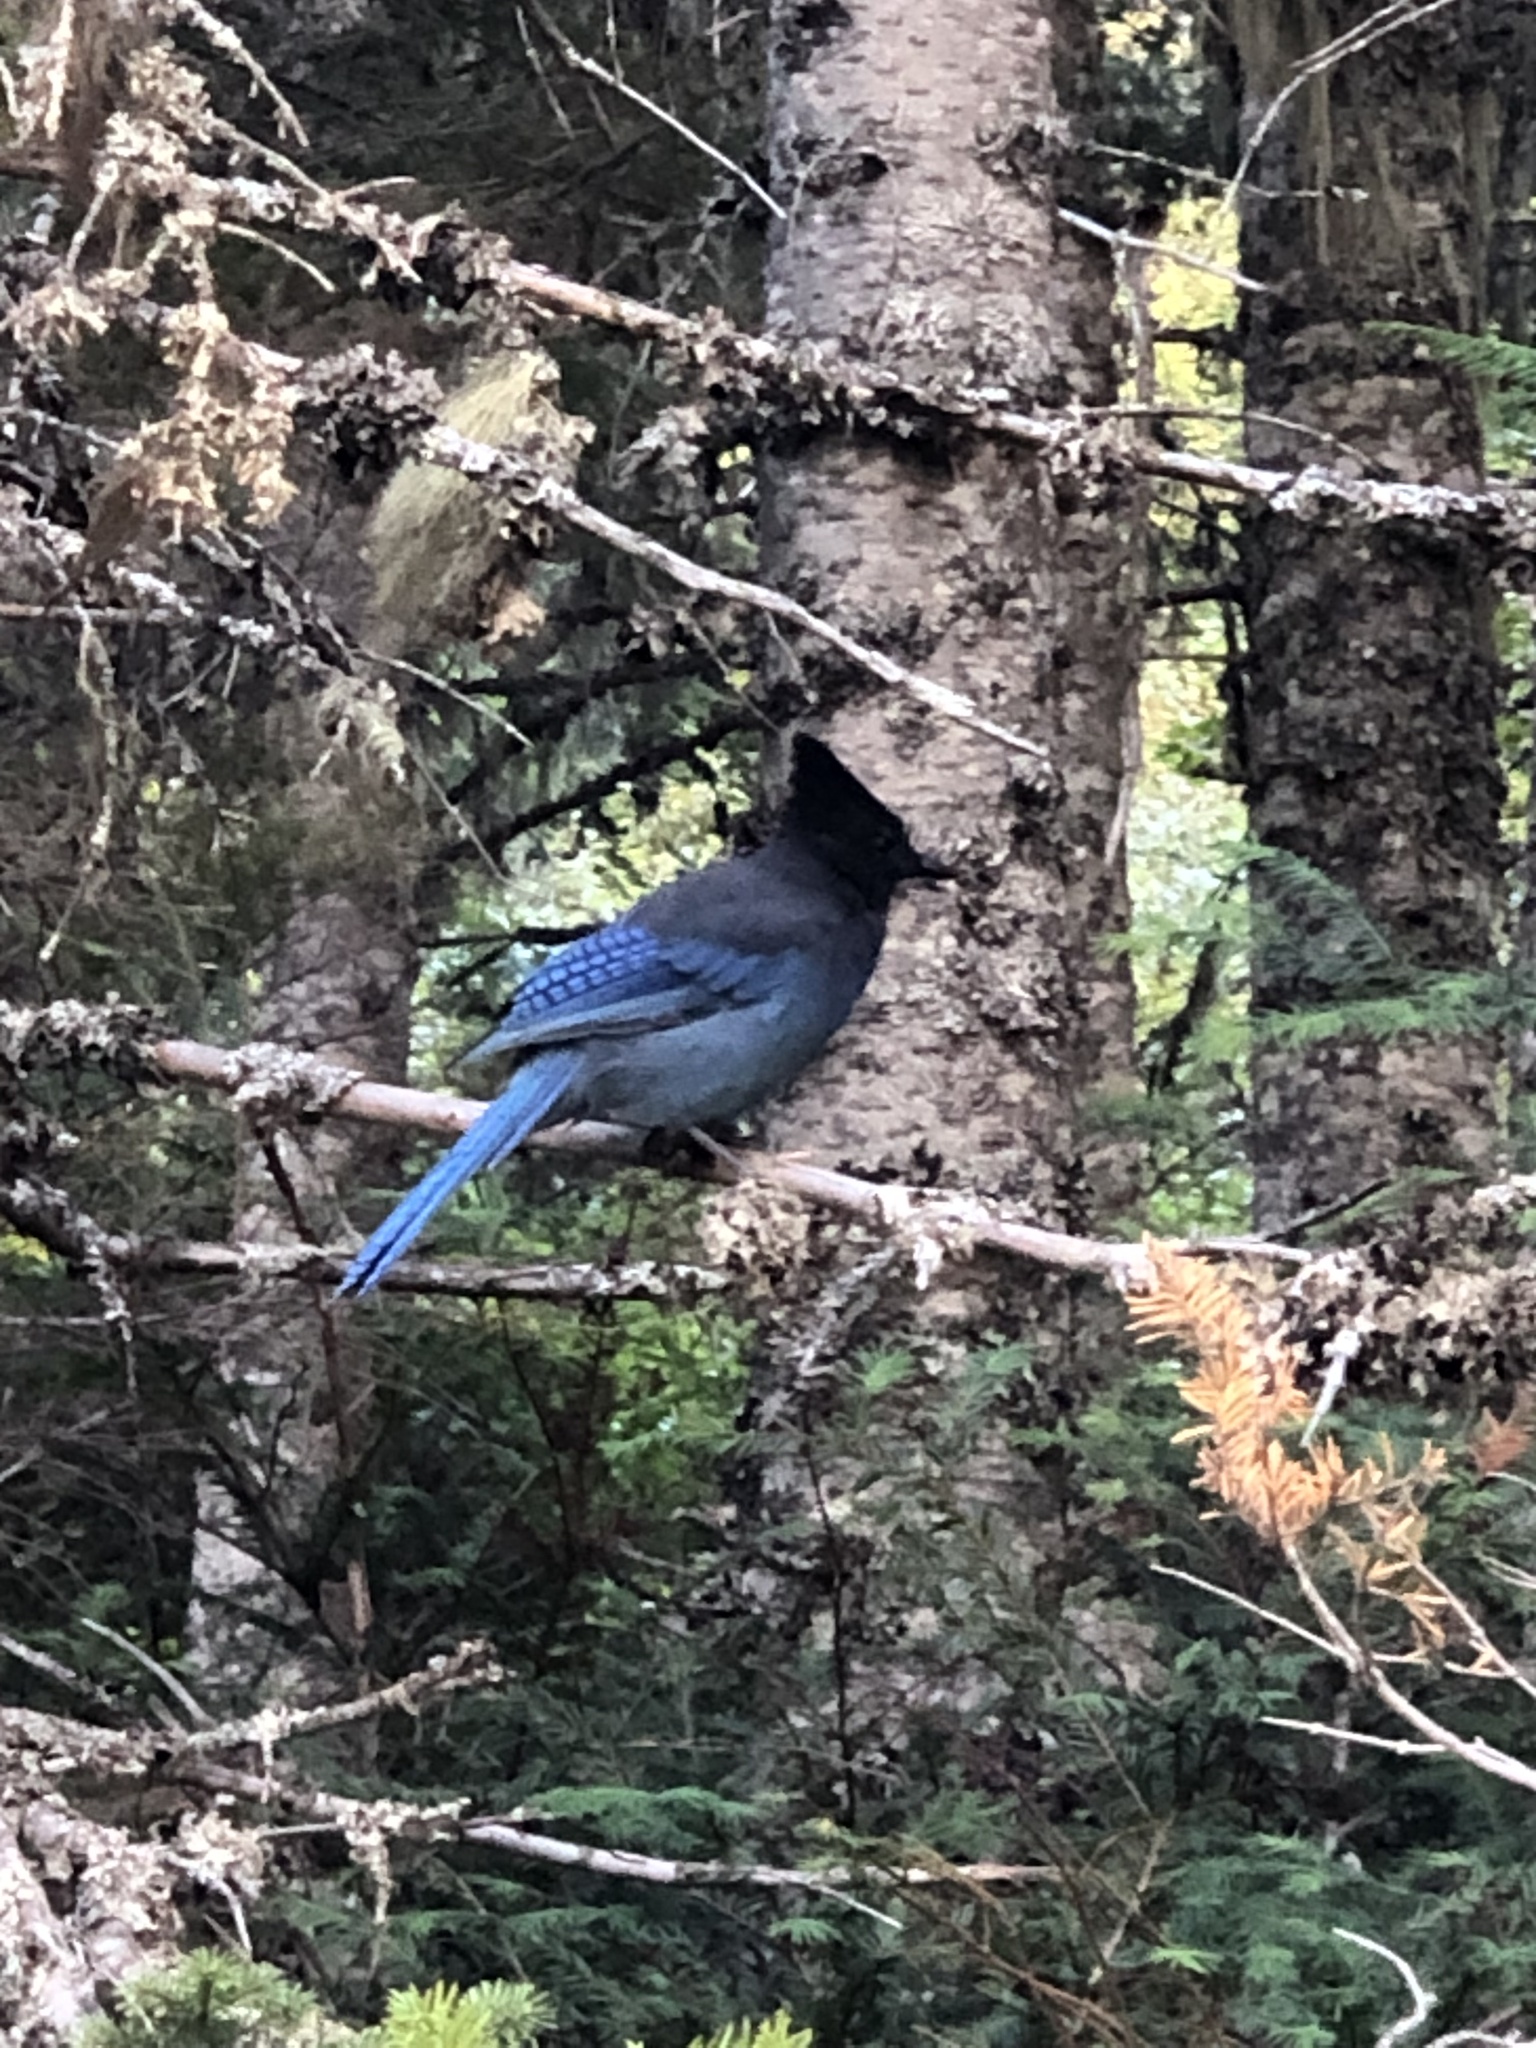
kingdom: Animalia
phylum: Chordata
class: Aves
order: Passeriformes
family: Corvidae
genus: Cyanocitta
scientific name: Cyanocitta stelleri
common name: Steller's jay
